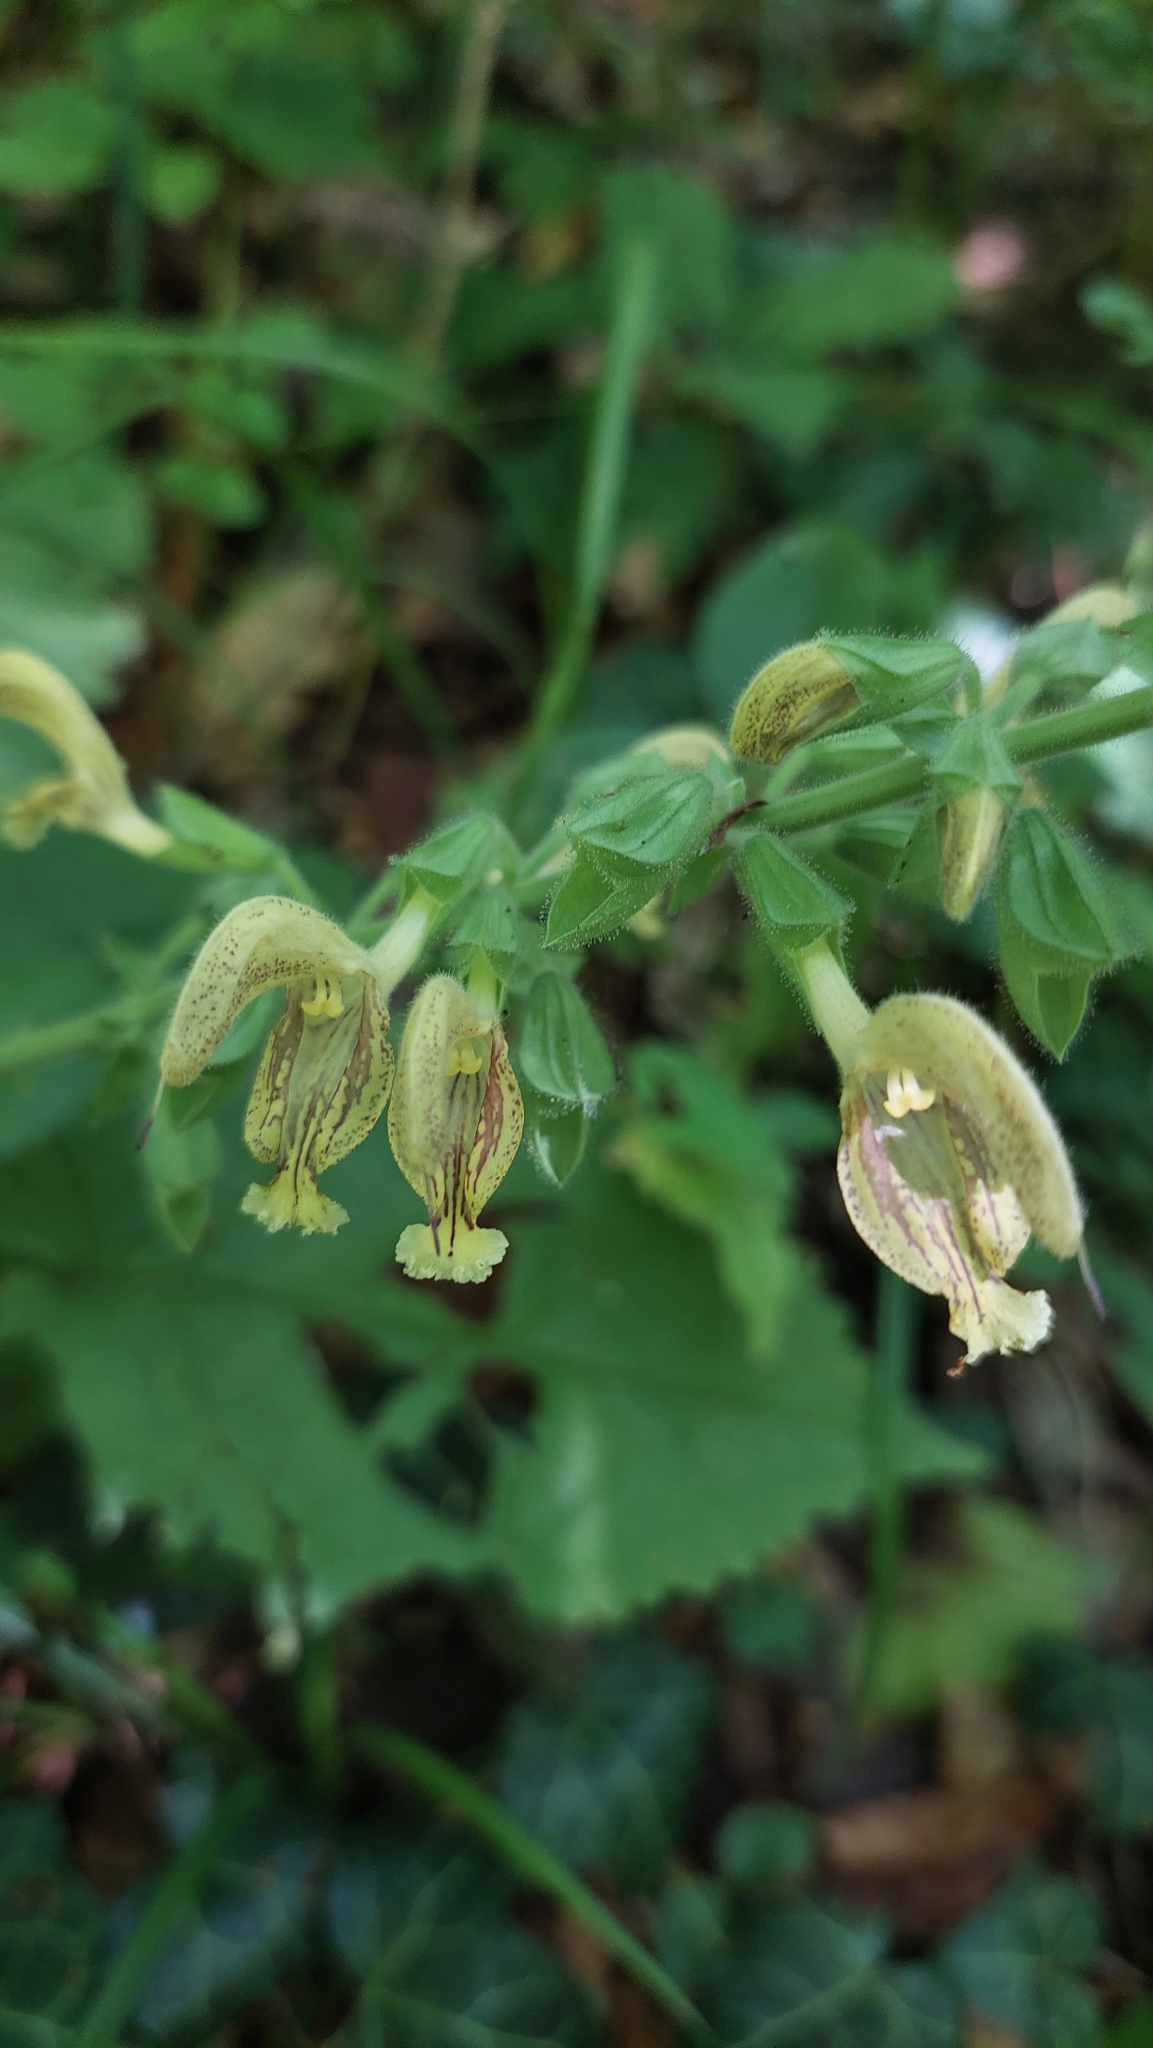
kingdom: Plantae
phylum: Tracheophyta
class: Magnoliopsida
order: Lamiales
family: Lamiaceae
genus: Salvia
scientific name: Salvia glutinosa
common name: Sticky clary
